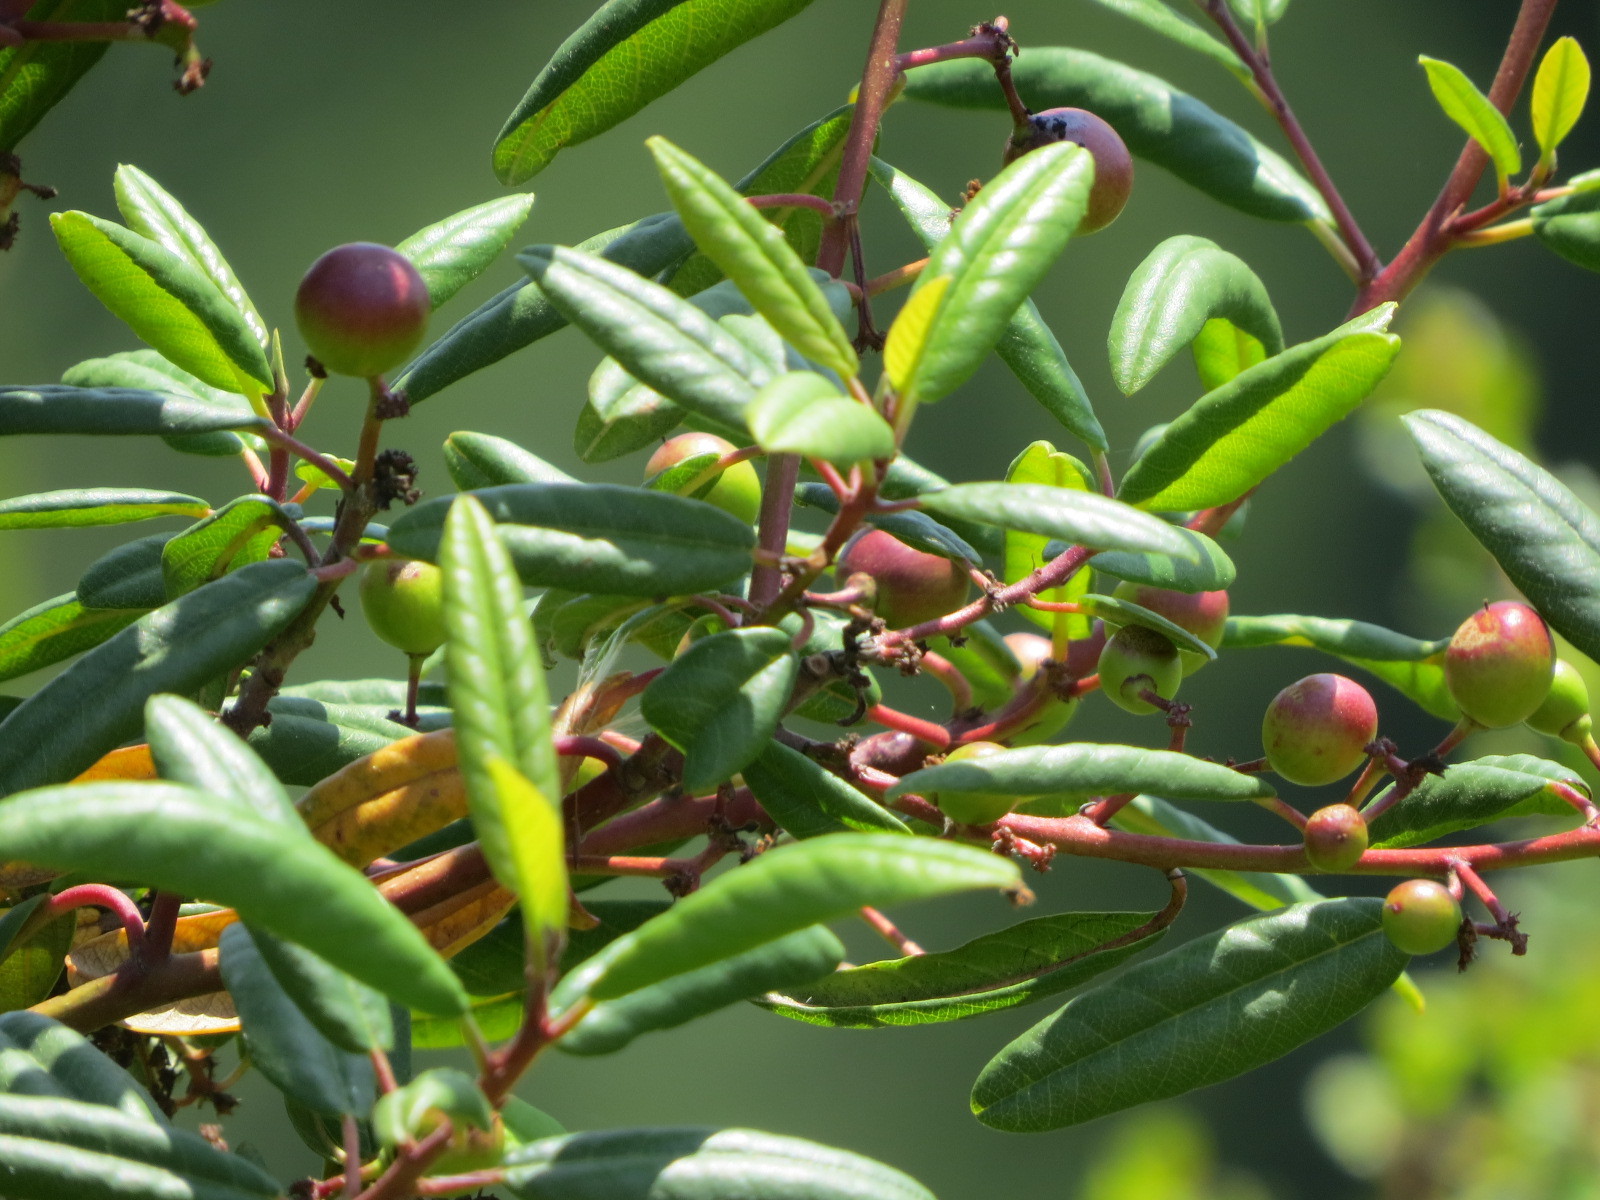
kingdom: Plantae
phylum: Tracheophyta
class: Magnoliopsida
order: Rosales
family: Rhamnaceae
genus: Frangula
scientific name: Frangula californica
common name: California buckthorn
